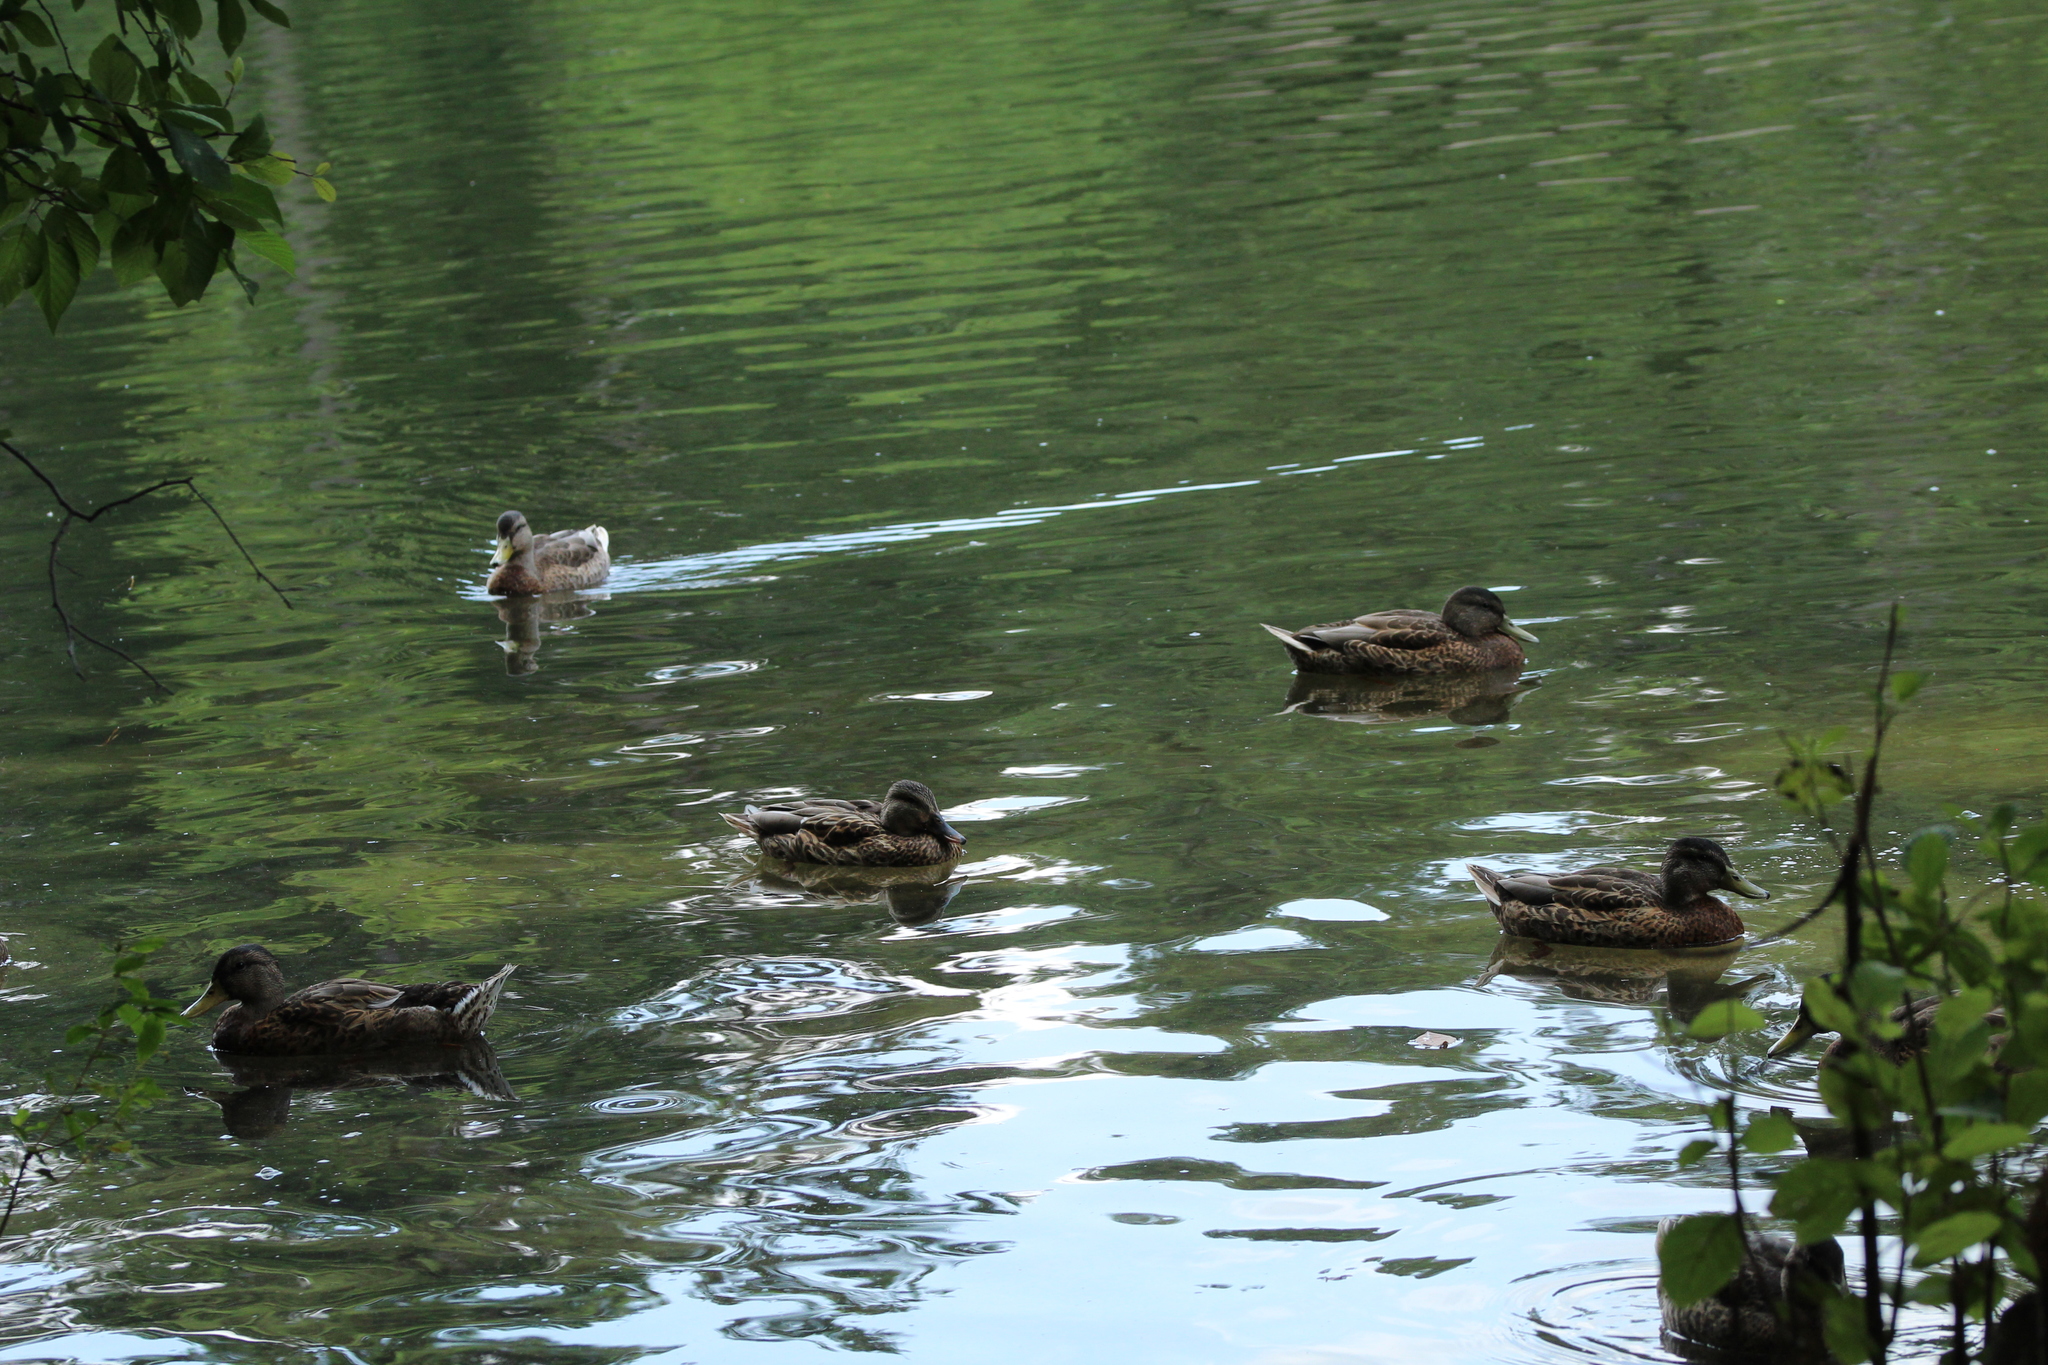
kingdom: Animalia
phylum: Chordata
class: Aves
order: Anseriformes
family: Anatidae
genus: Anas
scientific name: Anas platyrhynchos
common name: Mallard
